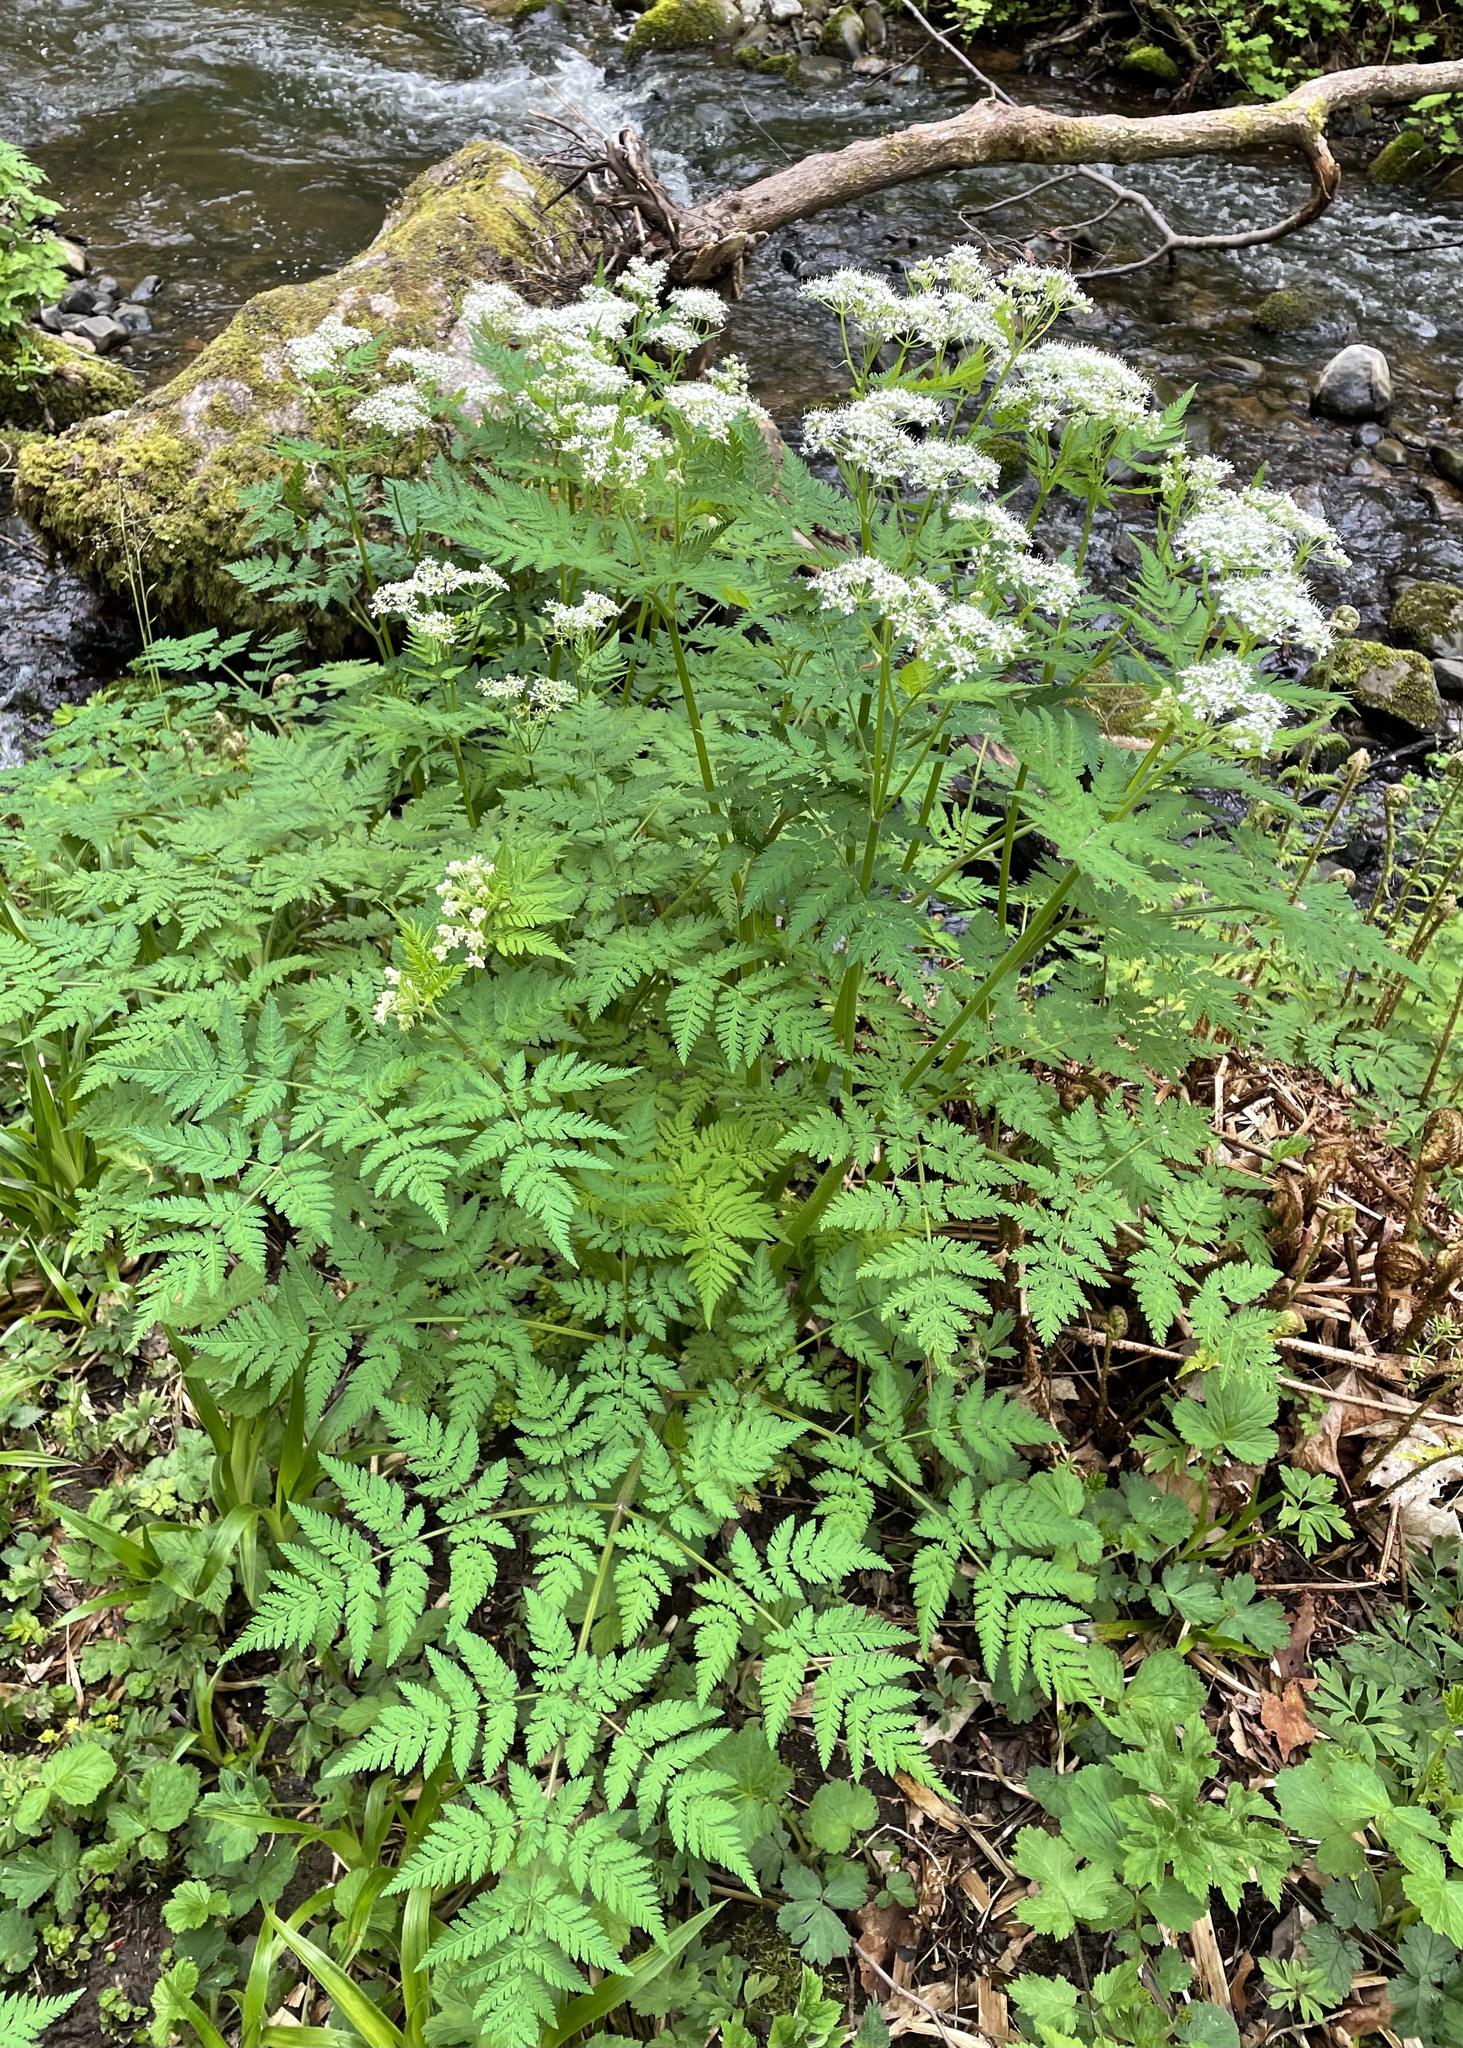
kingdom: Plantae
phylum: Tracheophyta
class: Magnoliopsida
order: Apiales
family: Apiaceae
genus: Myrrhis
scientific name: Myrrhis odorata
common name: Sweet cicely
